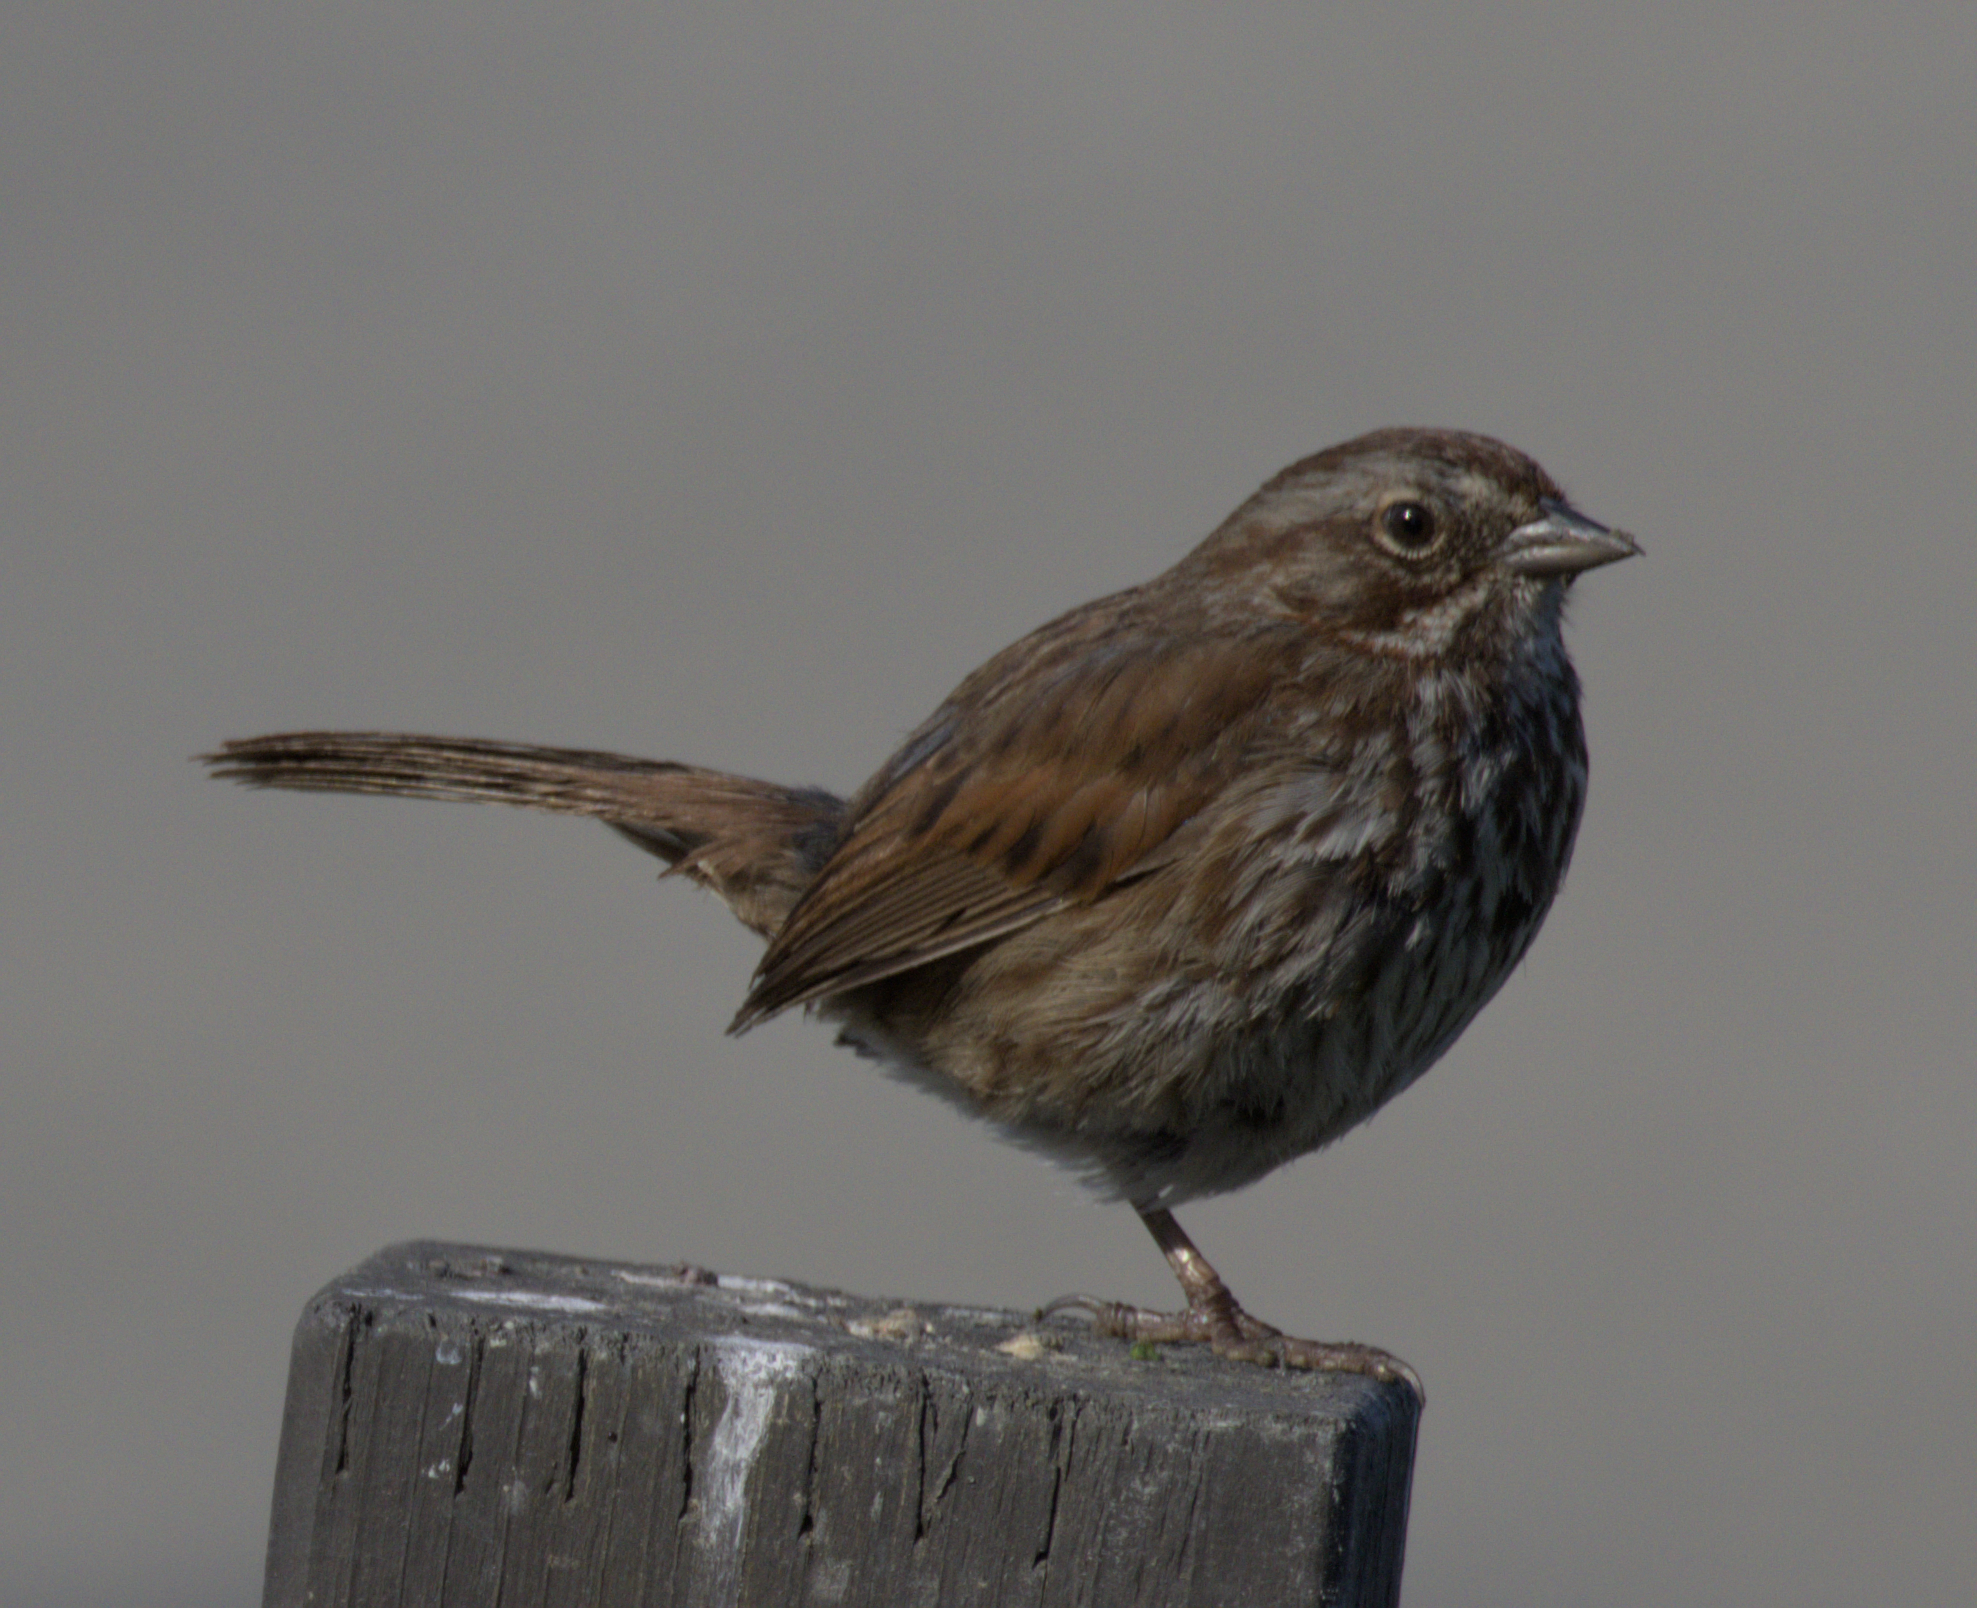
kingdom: Animalia
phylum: Chordata
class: Aves
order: Passeriformes
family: Passerellidae
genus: Melospiza
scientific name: Melospiza melodia
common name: Song sparrow
